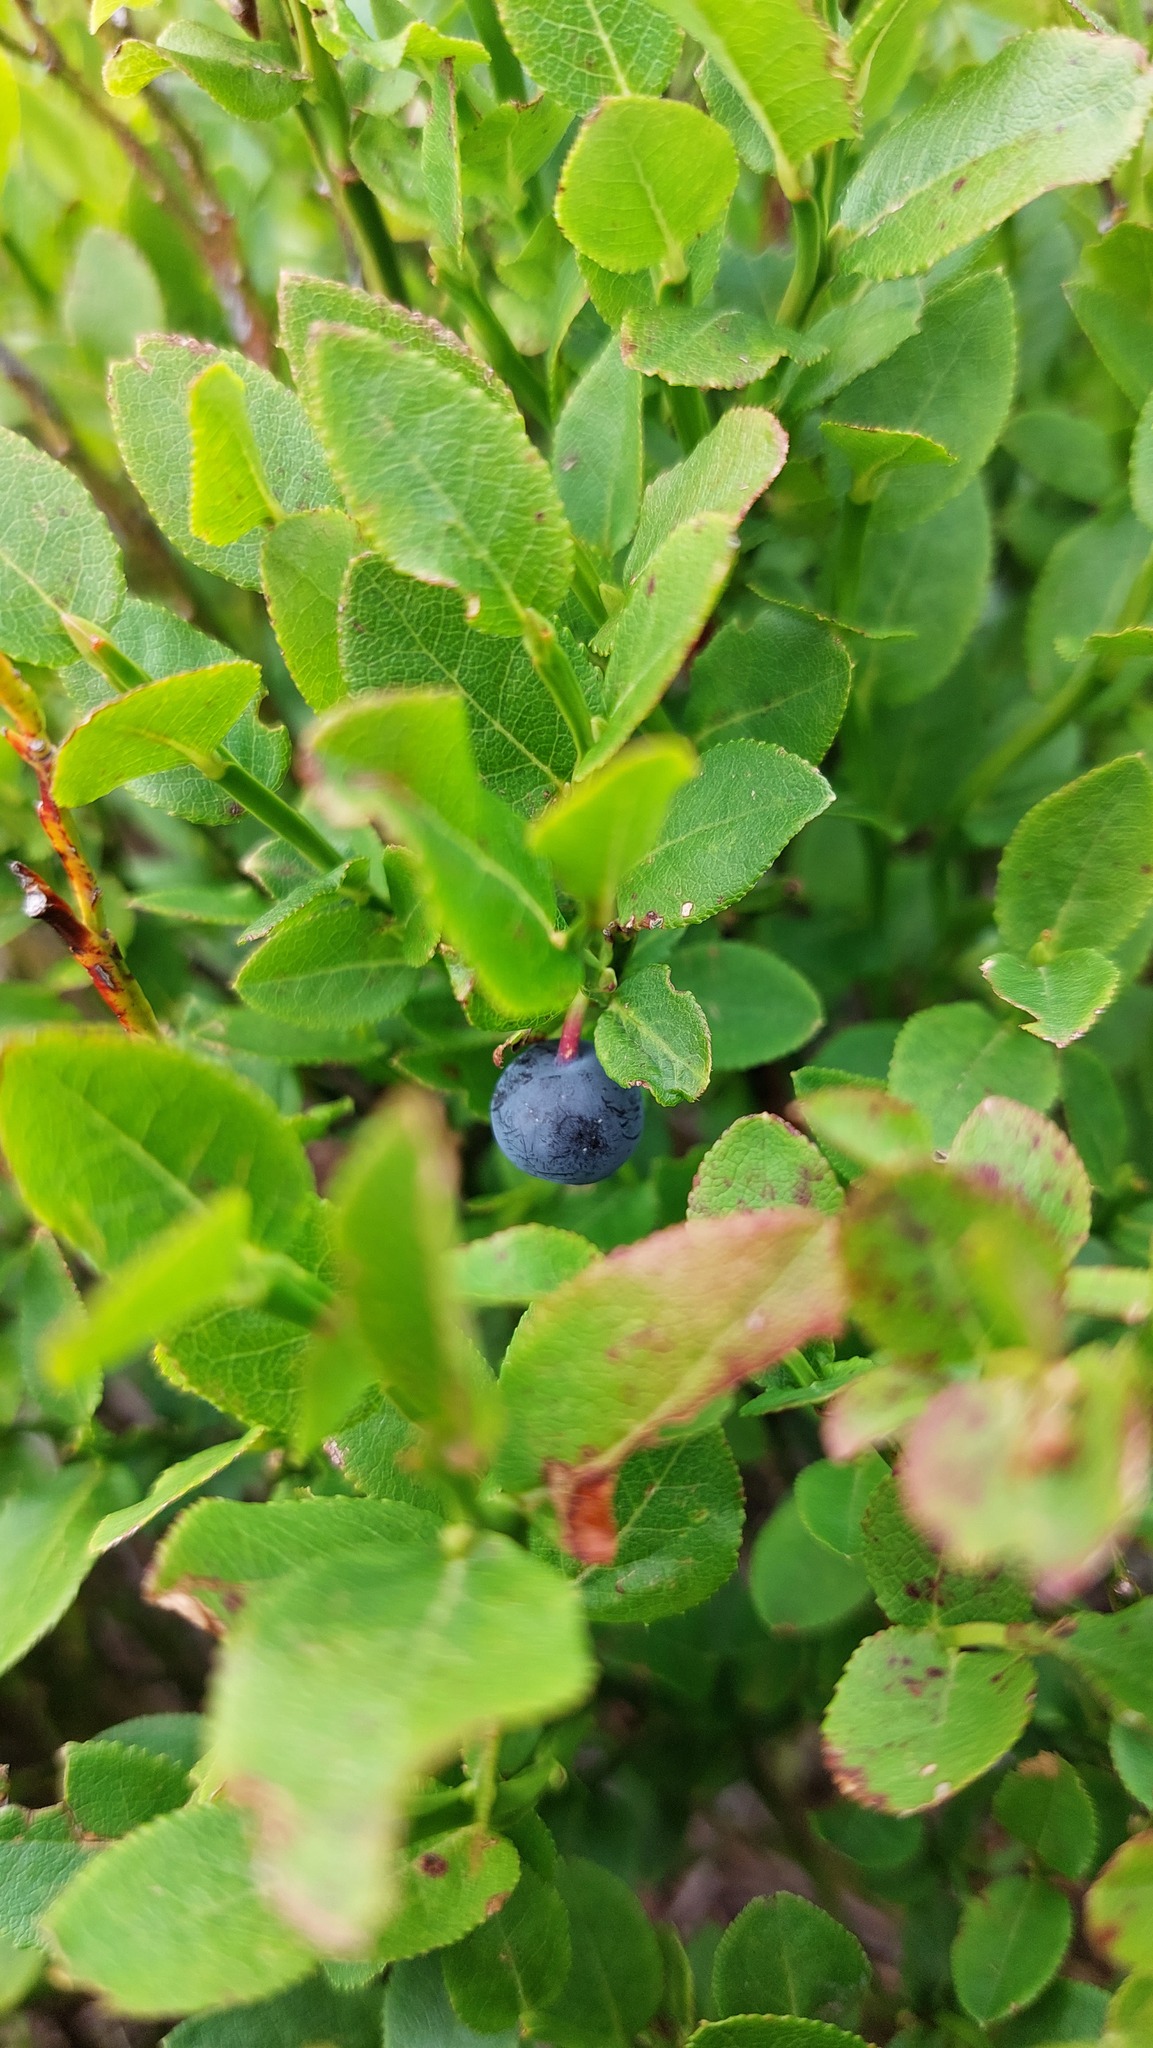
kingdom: Plantae
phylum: Tracheophyta
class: Magnoliopsida
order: Ericales
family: Ericaceae
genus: Vaccinium
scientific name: Vaccinium myrtillus
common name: Bilberry
